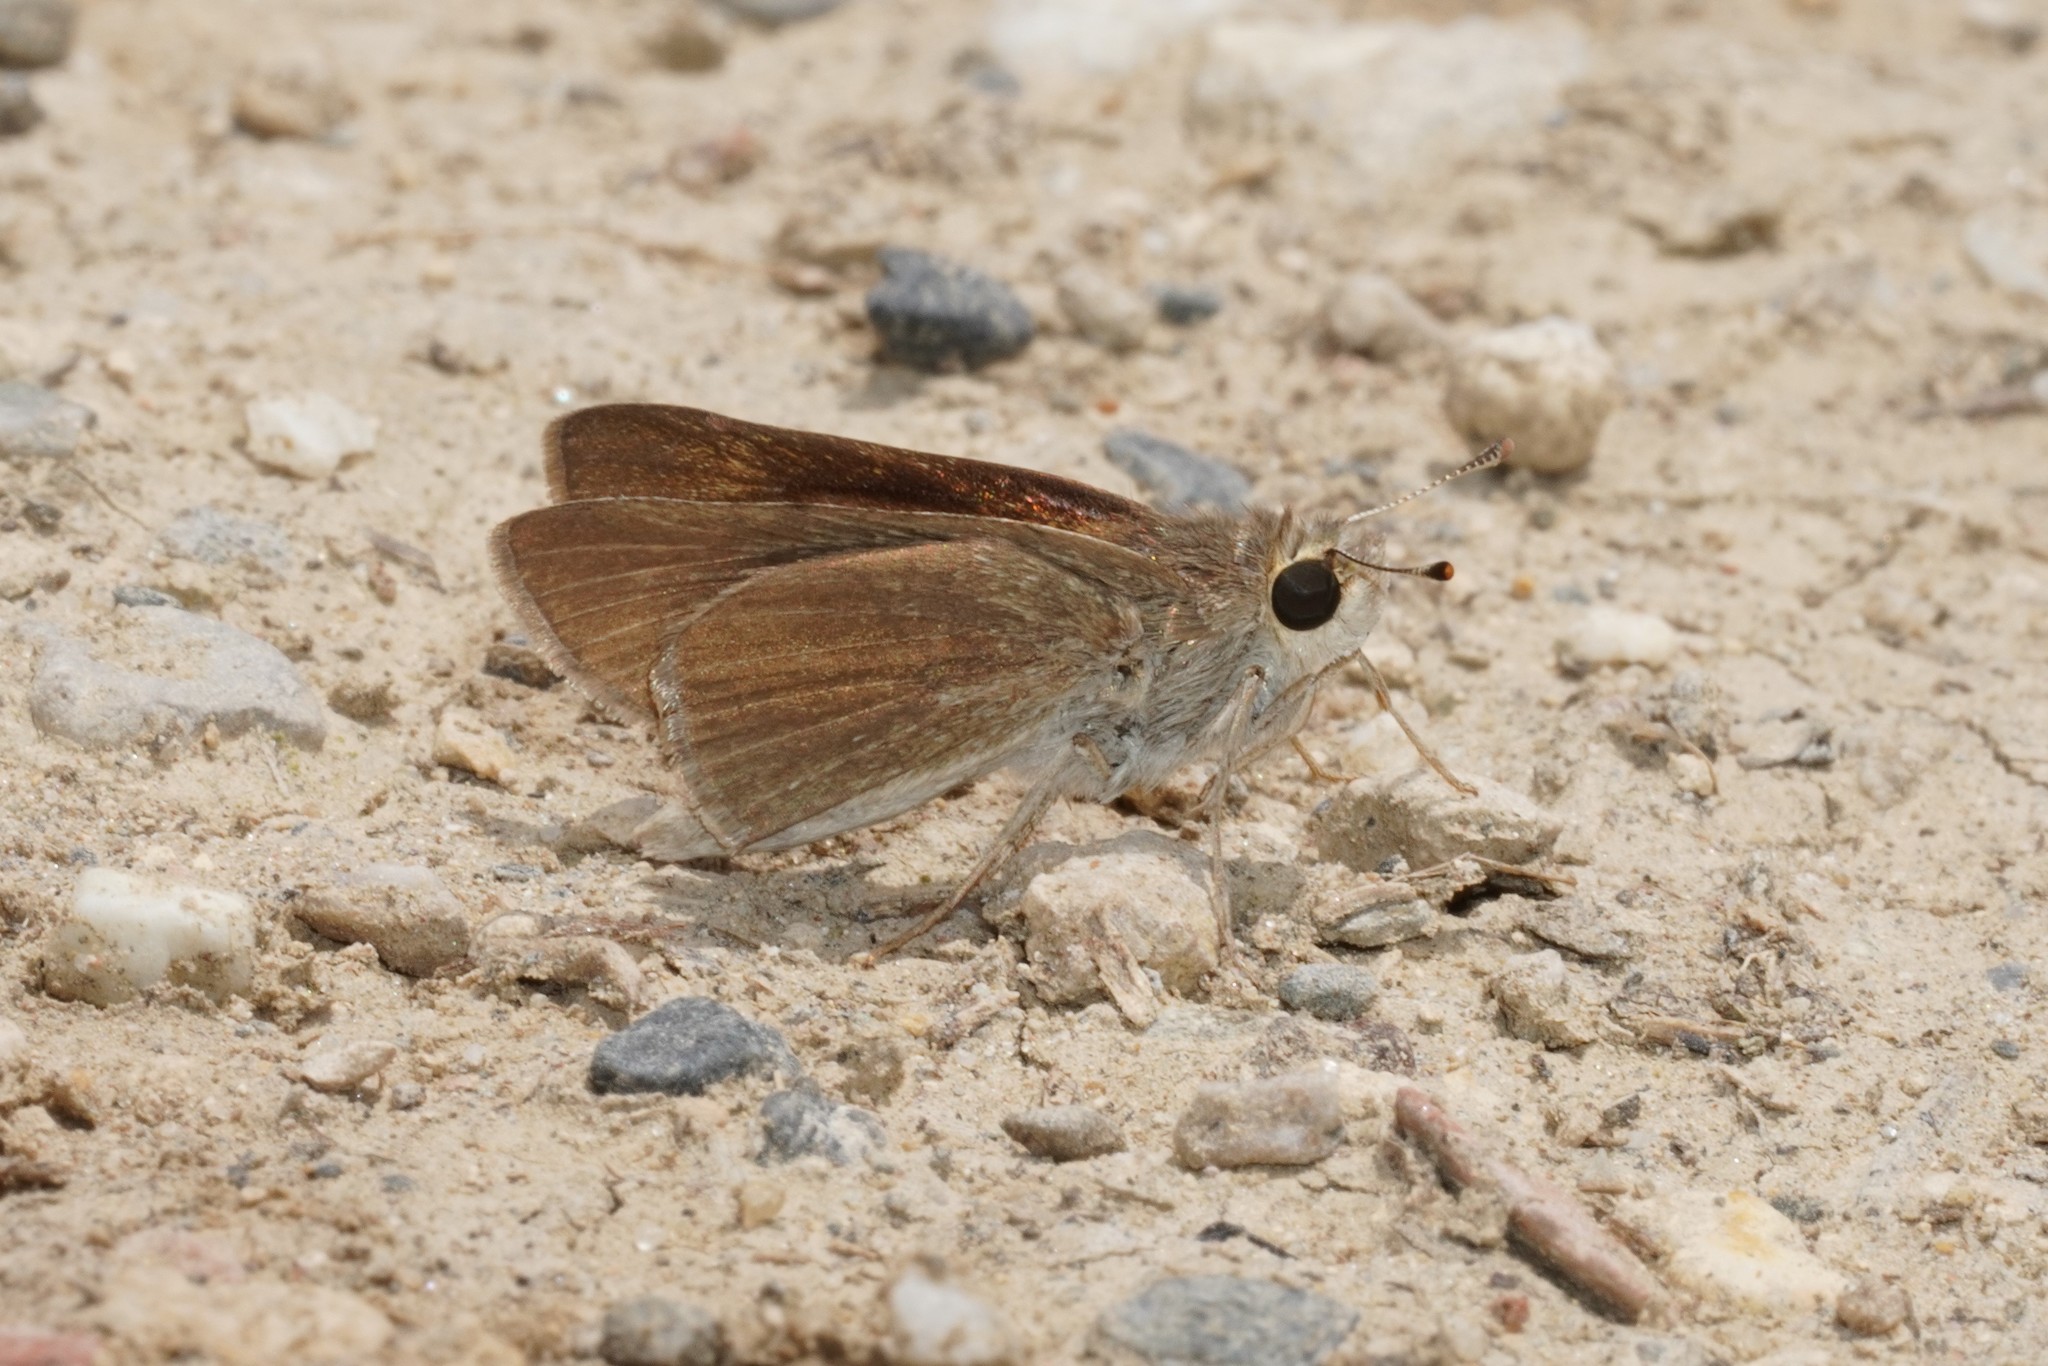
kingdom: Animalia
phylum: Arthropoda
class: Insecta
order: Lepidoptera
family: Hesperiidae
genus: Gegenes
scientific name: Gegenes nostrodamus
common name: Mediterranean skipper
